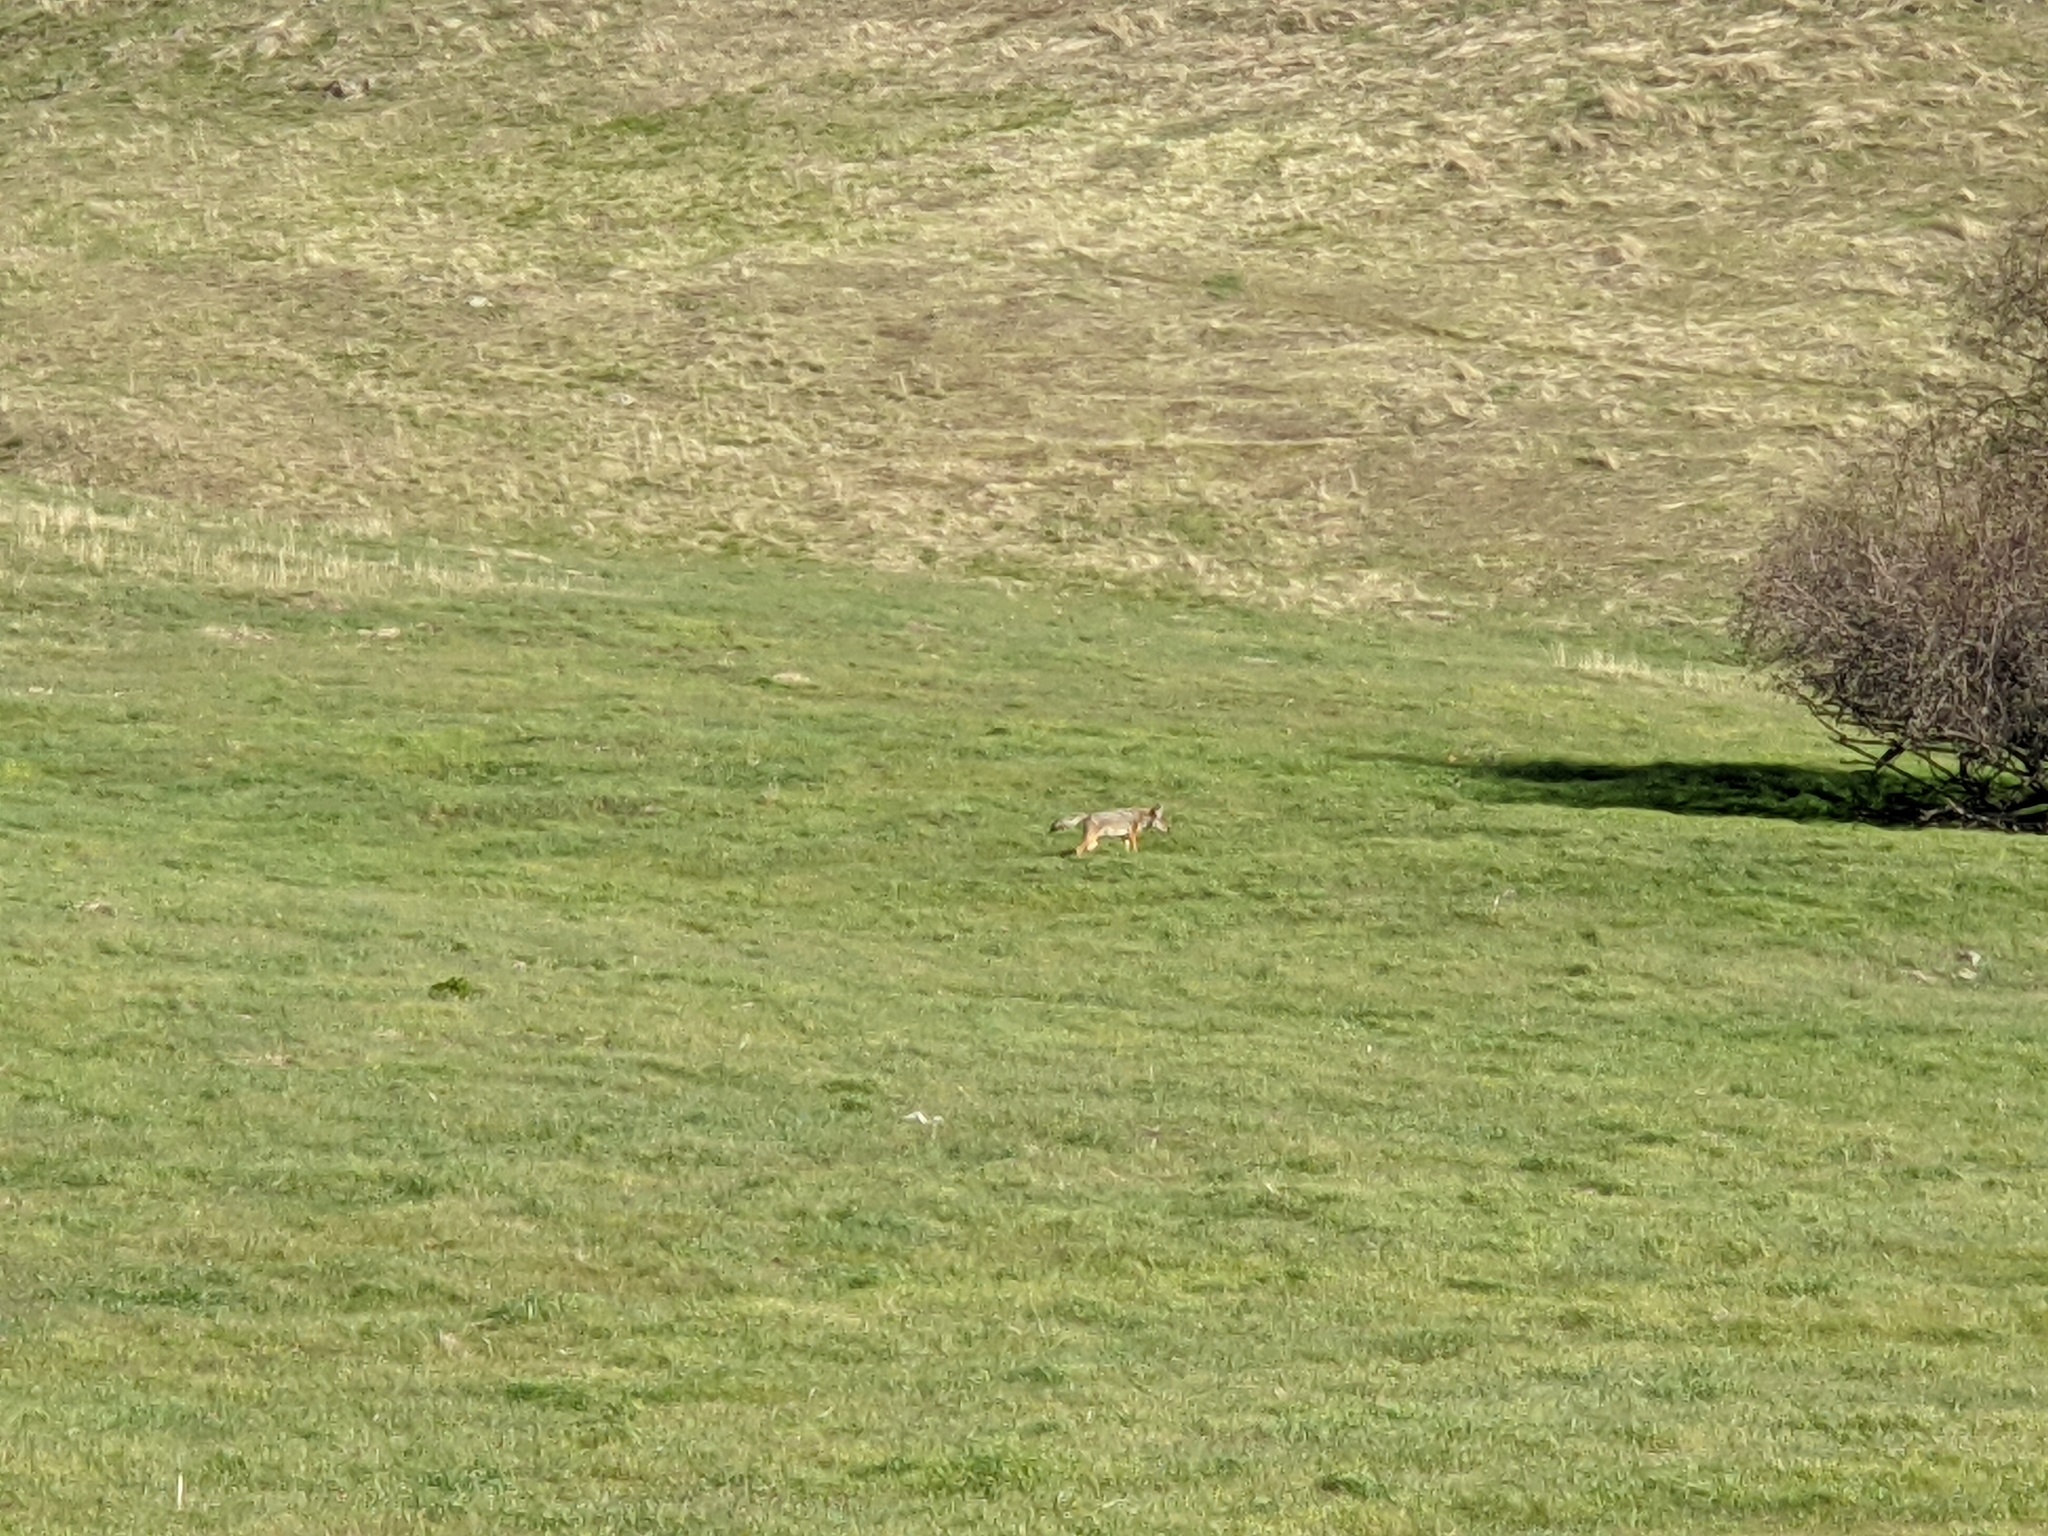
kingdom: Animalia
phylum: Chordata
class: Mammalia
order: Carnivora
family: Canidae
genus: Canis
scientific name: Canis latrans
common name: Coyote
